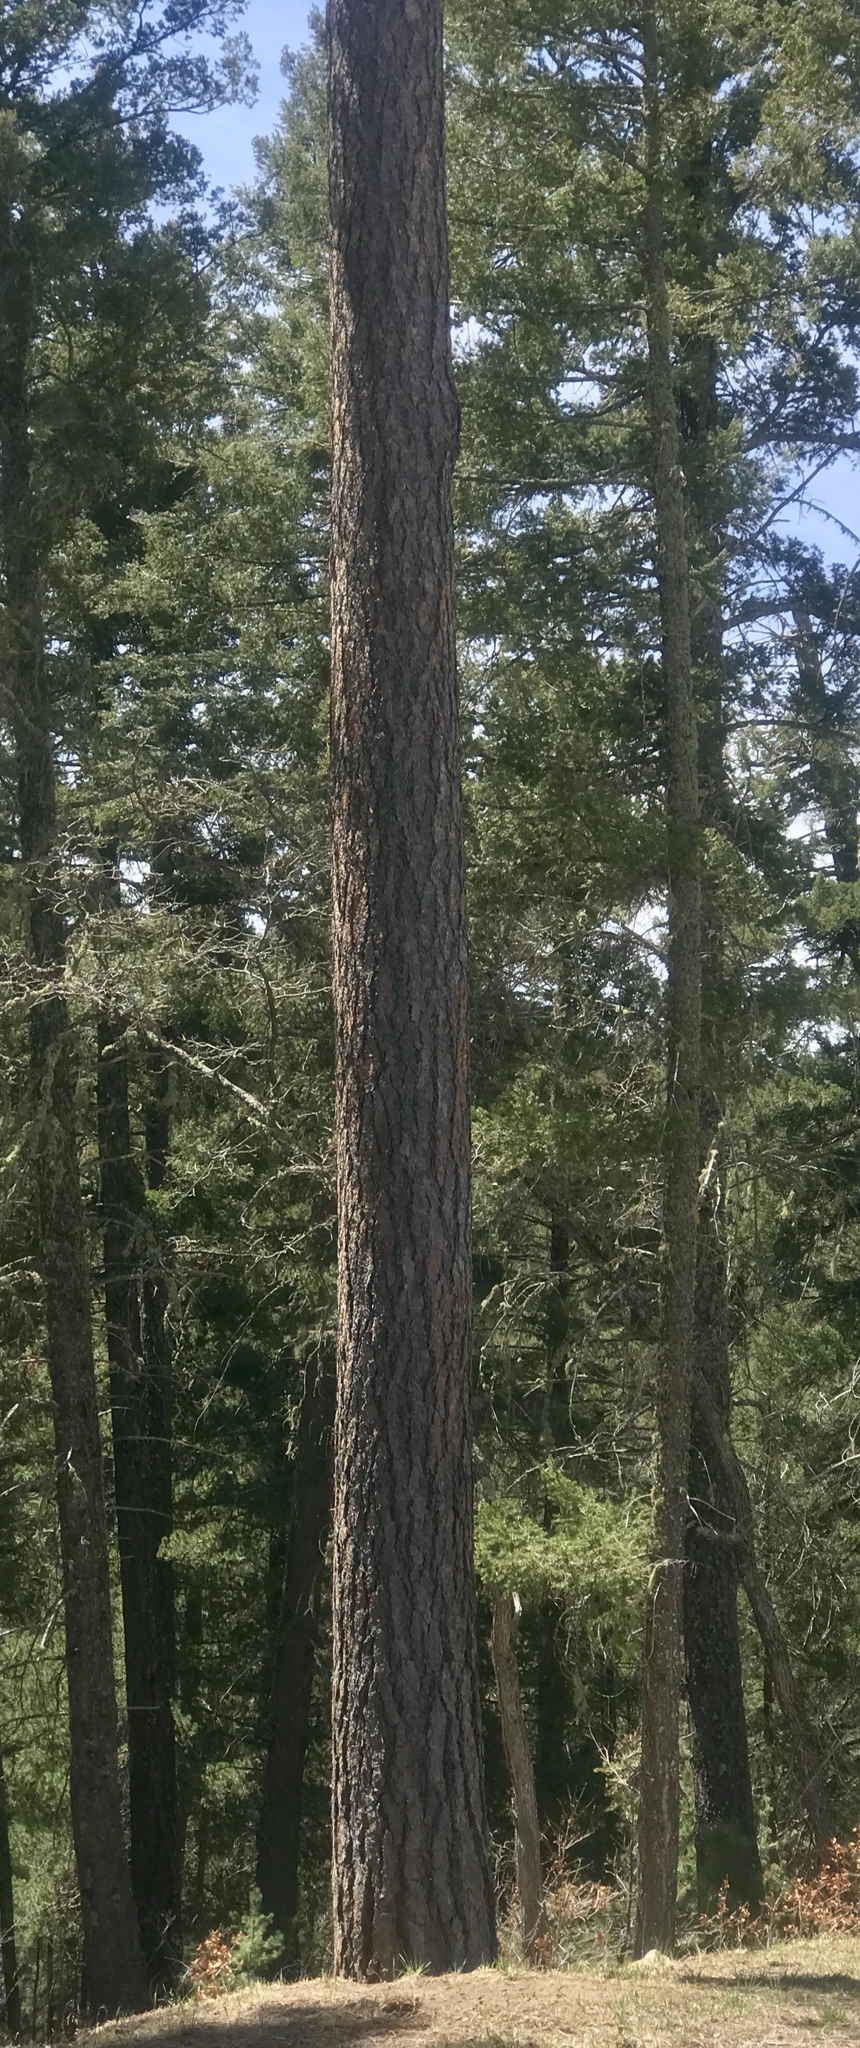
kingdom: Plantae
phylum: Tracheophyta
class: Pinopsida
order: Pinales
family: Pinaceae
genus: Pinus
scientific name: Pinus ponderosa
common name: Western yellow-pine
